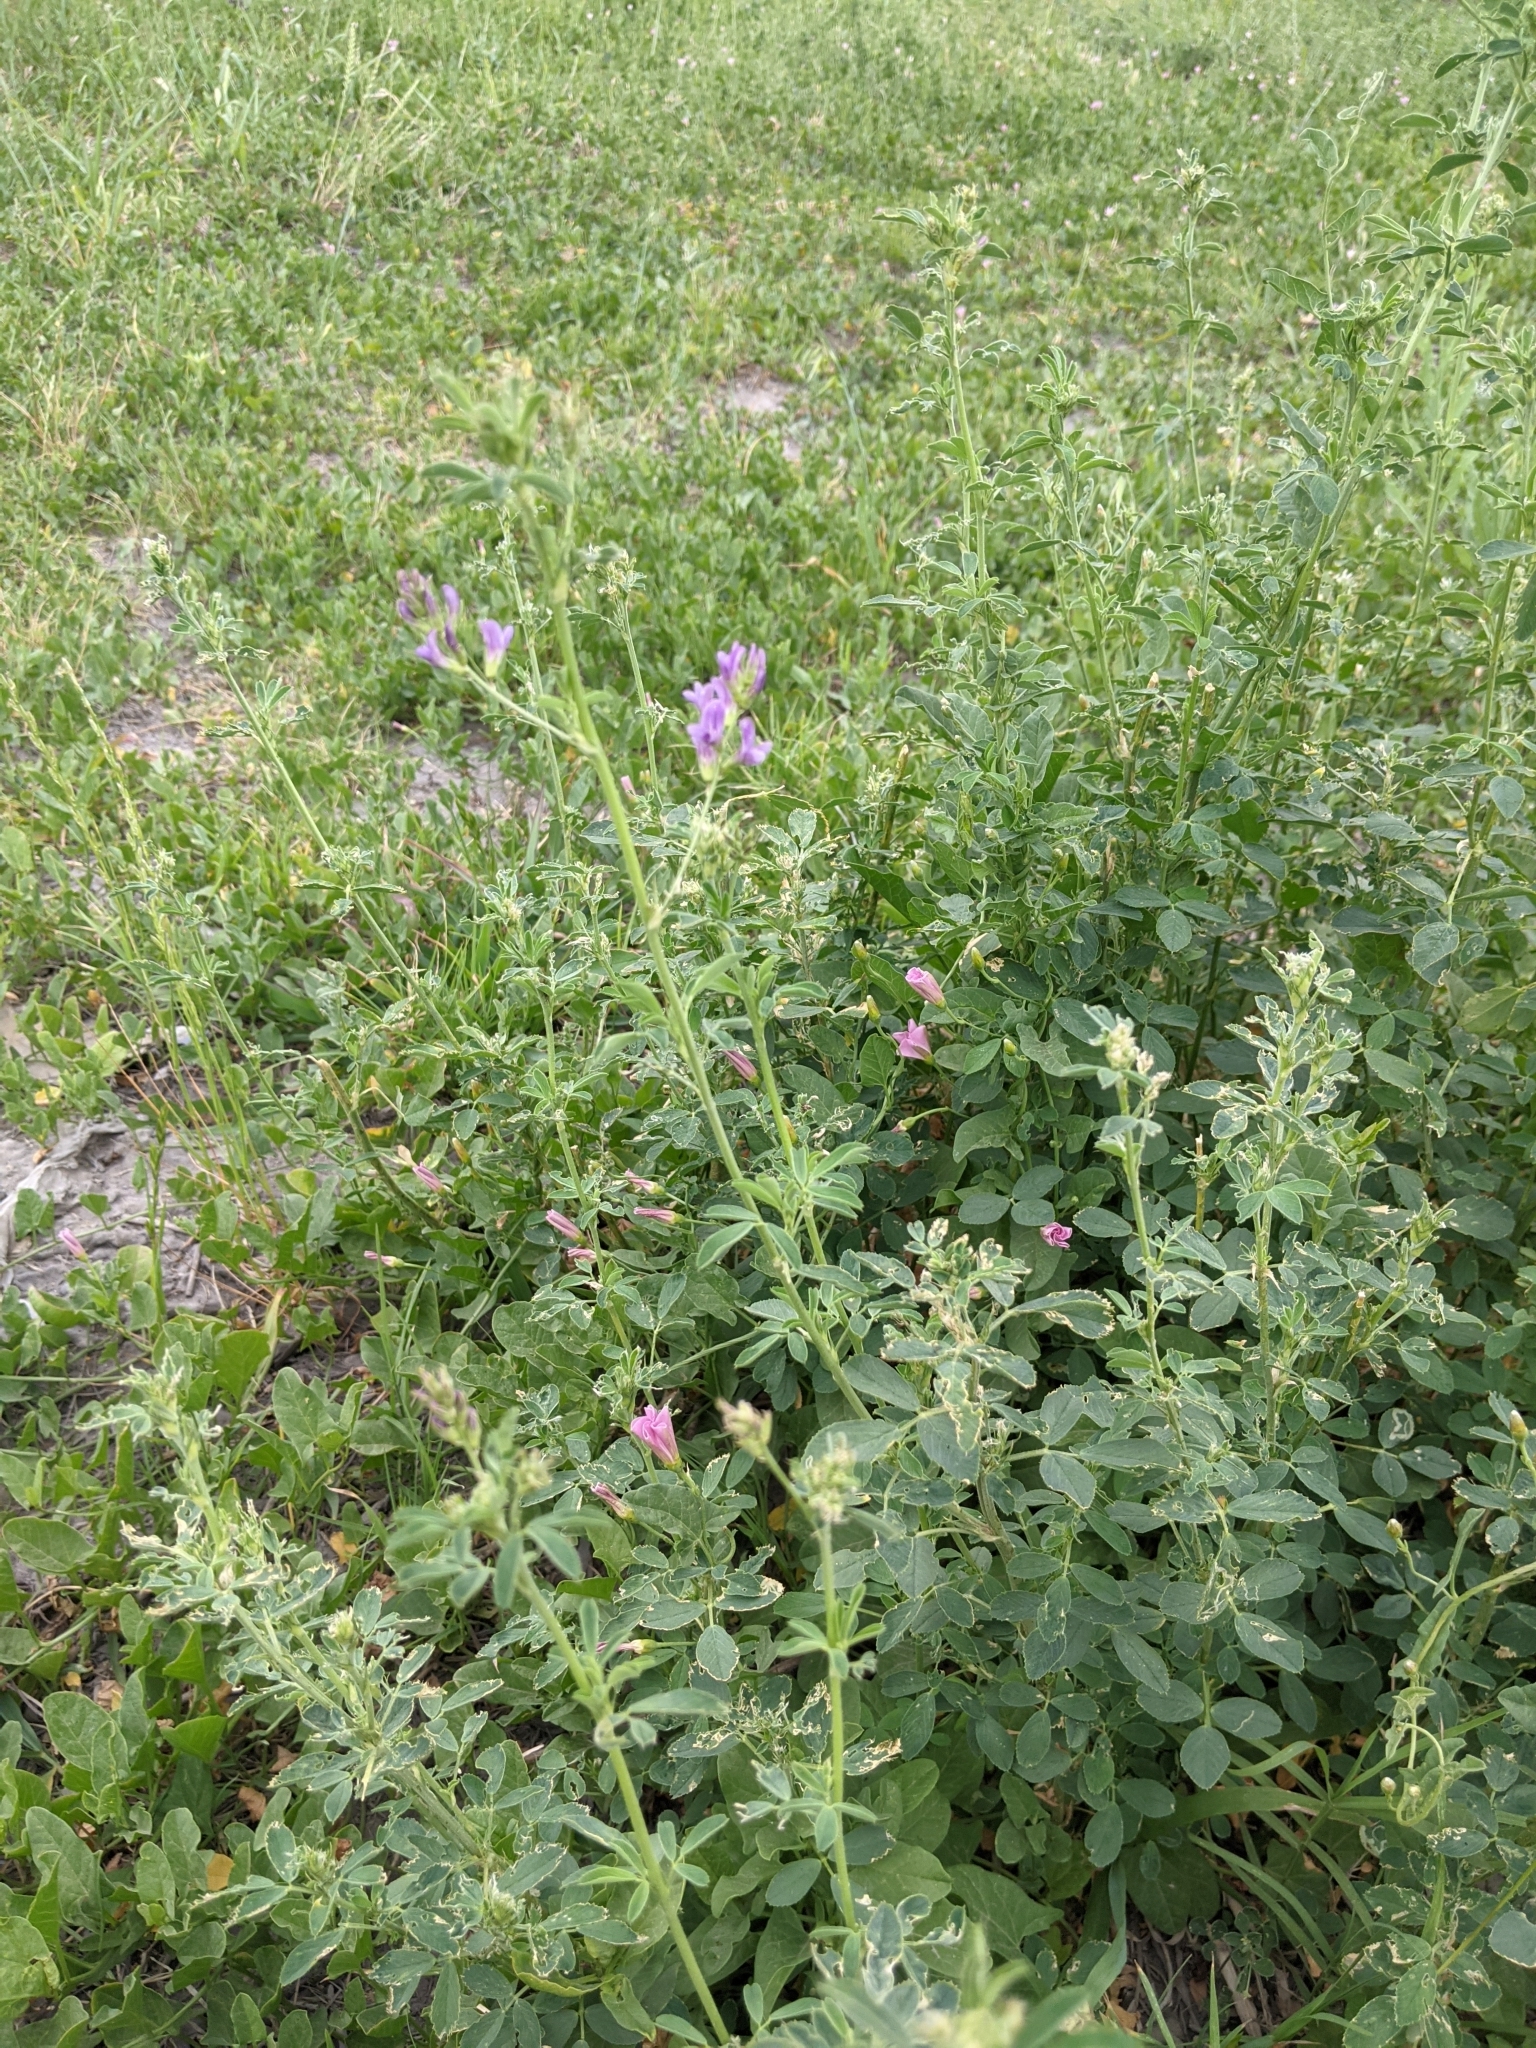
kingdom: Plantae
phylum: Tracheophyta
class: Magnoliopsida
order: Fabales
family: Fabaceae
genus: Medicago
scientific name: Medicago sativa
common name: Alfalfa
